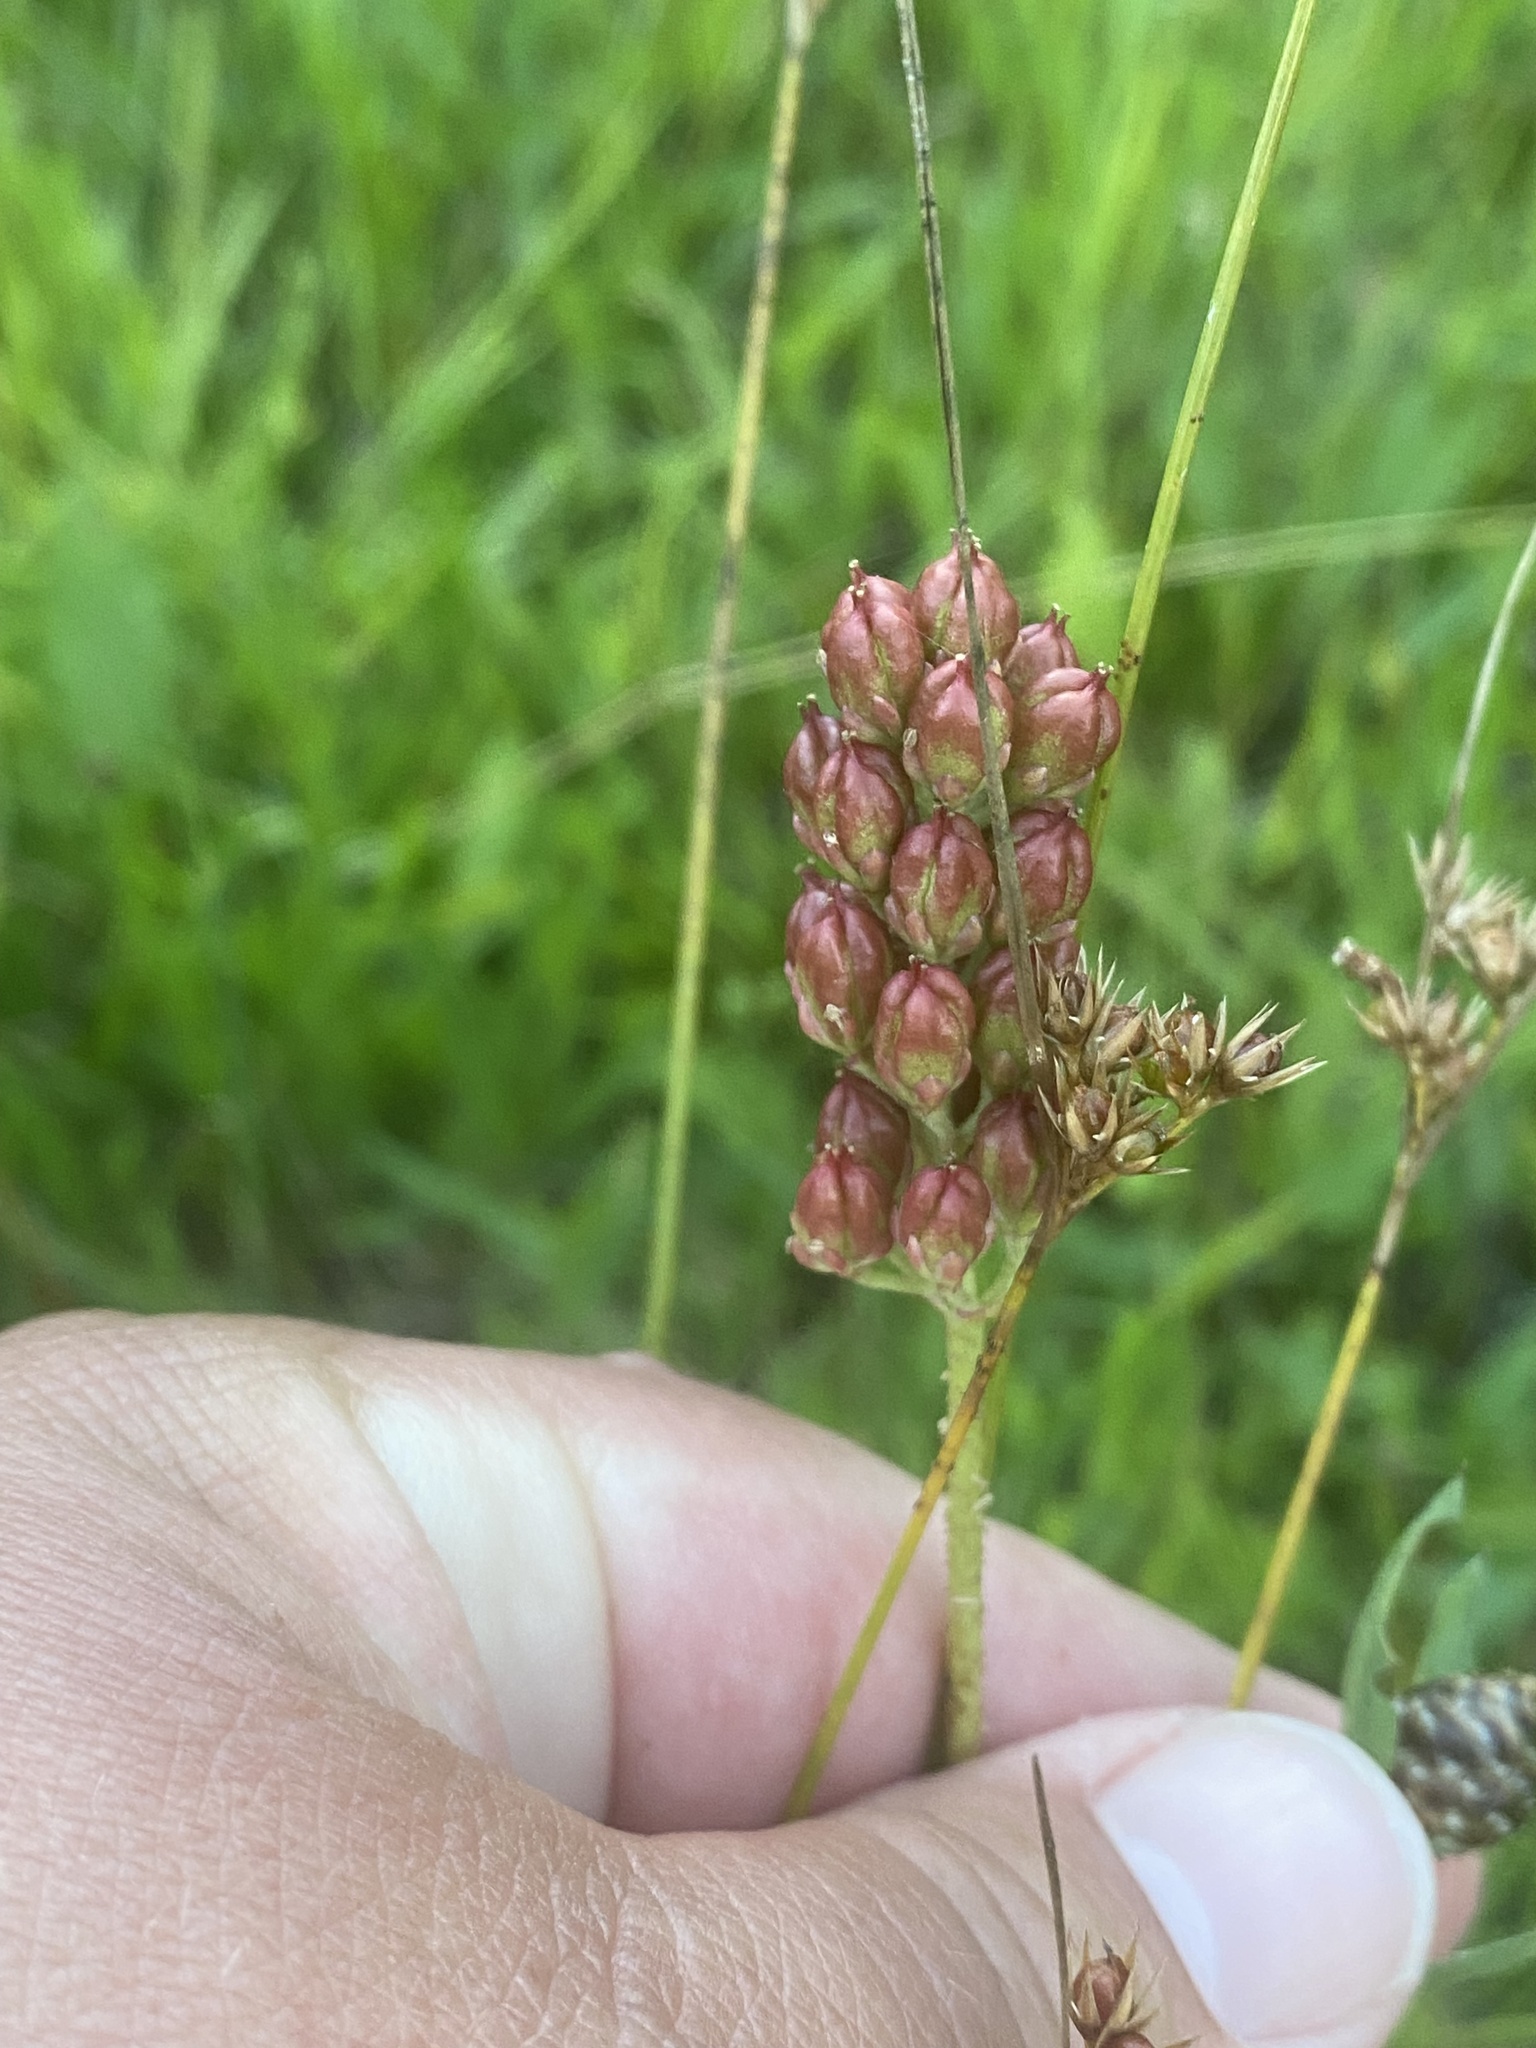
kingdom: Plantae
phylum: Tracheophyta
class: Liliopsida
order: Alismatales
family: Tofieldiaceae
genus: Triantha
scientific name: Triantha glutinosa
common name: Glutinous tofieldia
